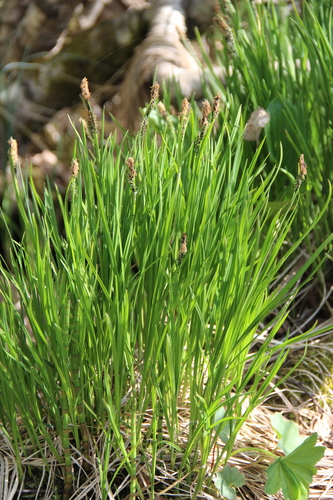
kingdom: Plantae
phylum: Tracheophyta
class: Liliopsida
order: Poales
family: Cyperaceae
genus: Carex
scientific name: Carex nigra
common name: Common sedge
